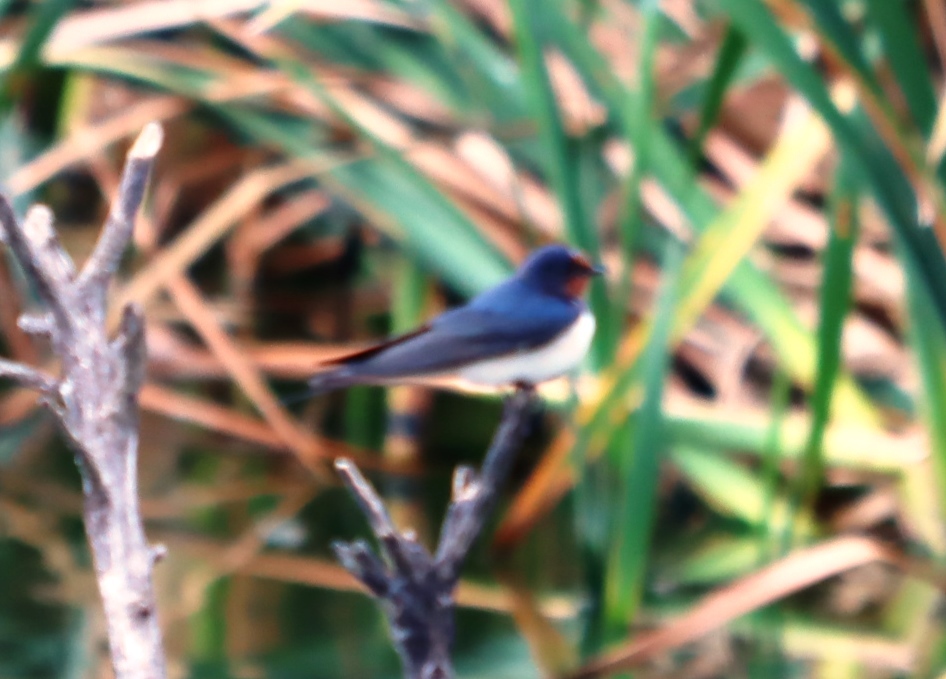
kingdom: Animalia
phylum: Chordata
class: Aves
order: Passeriformes
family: Hirundinidae
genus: Hirundo
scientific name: Hirundo rustica
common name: Barn swallow
